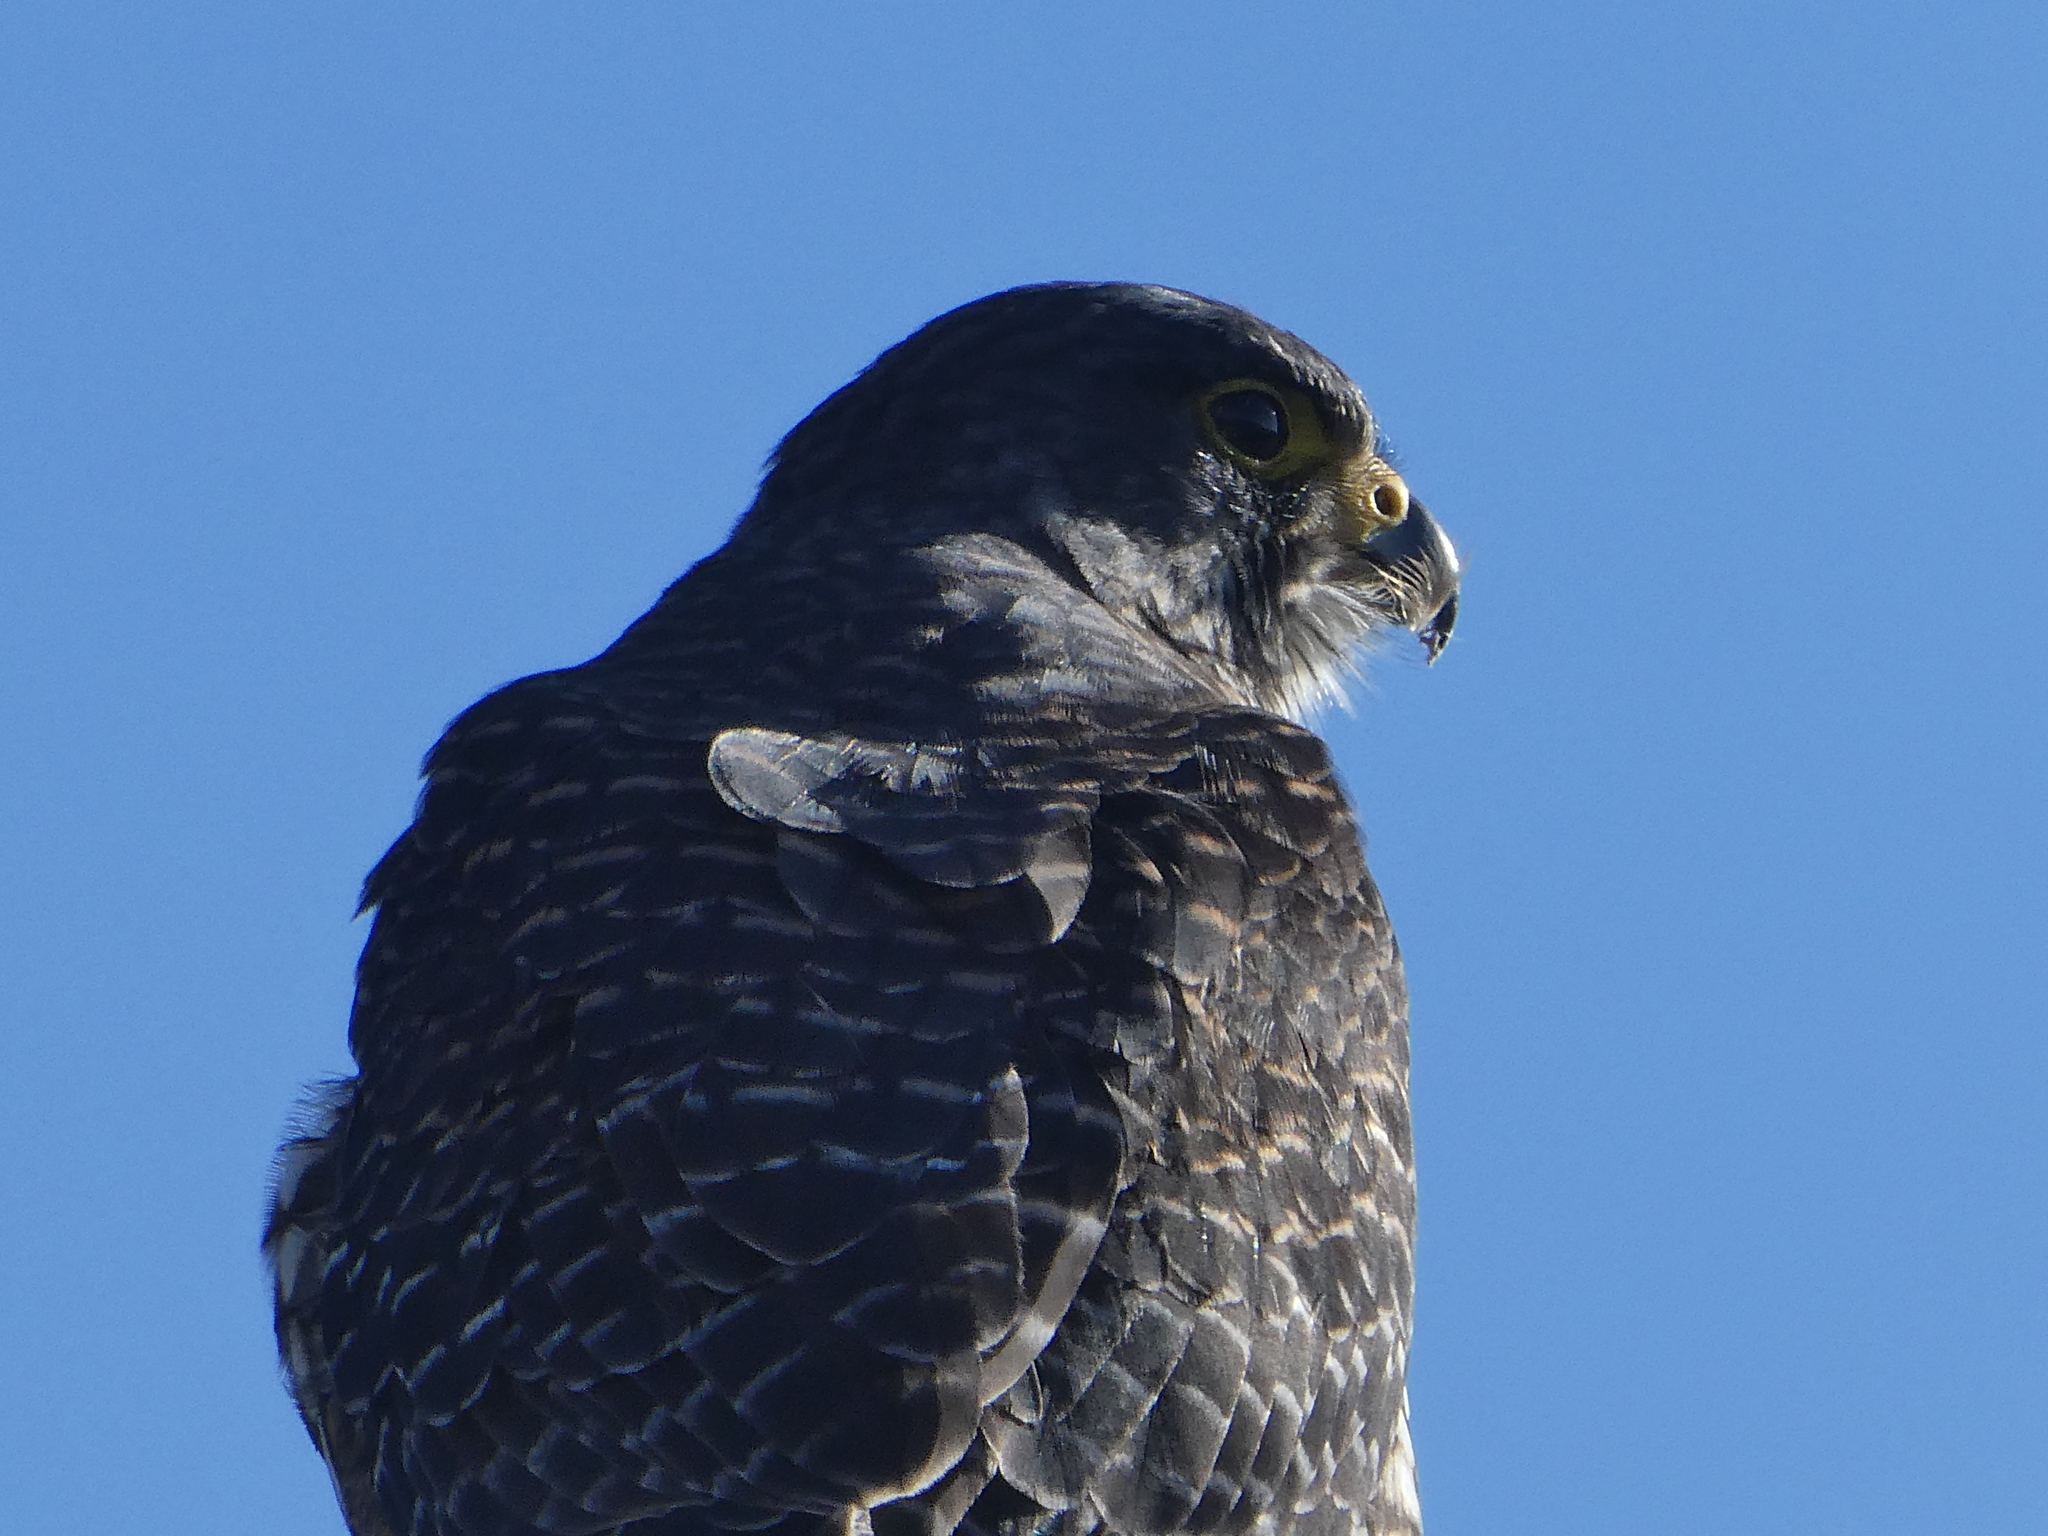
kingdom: Animalia
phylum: Chordata
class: Aves
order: Falconiformes
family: Falconidae
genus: Falco
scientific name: Falco novaeseelandiae
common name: New zealand falcon
